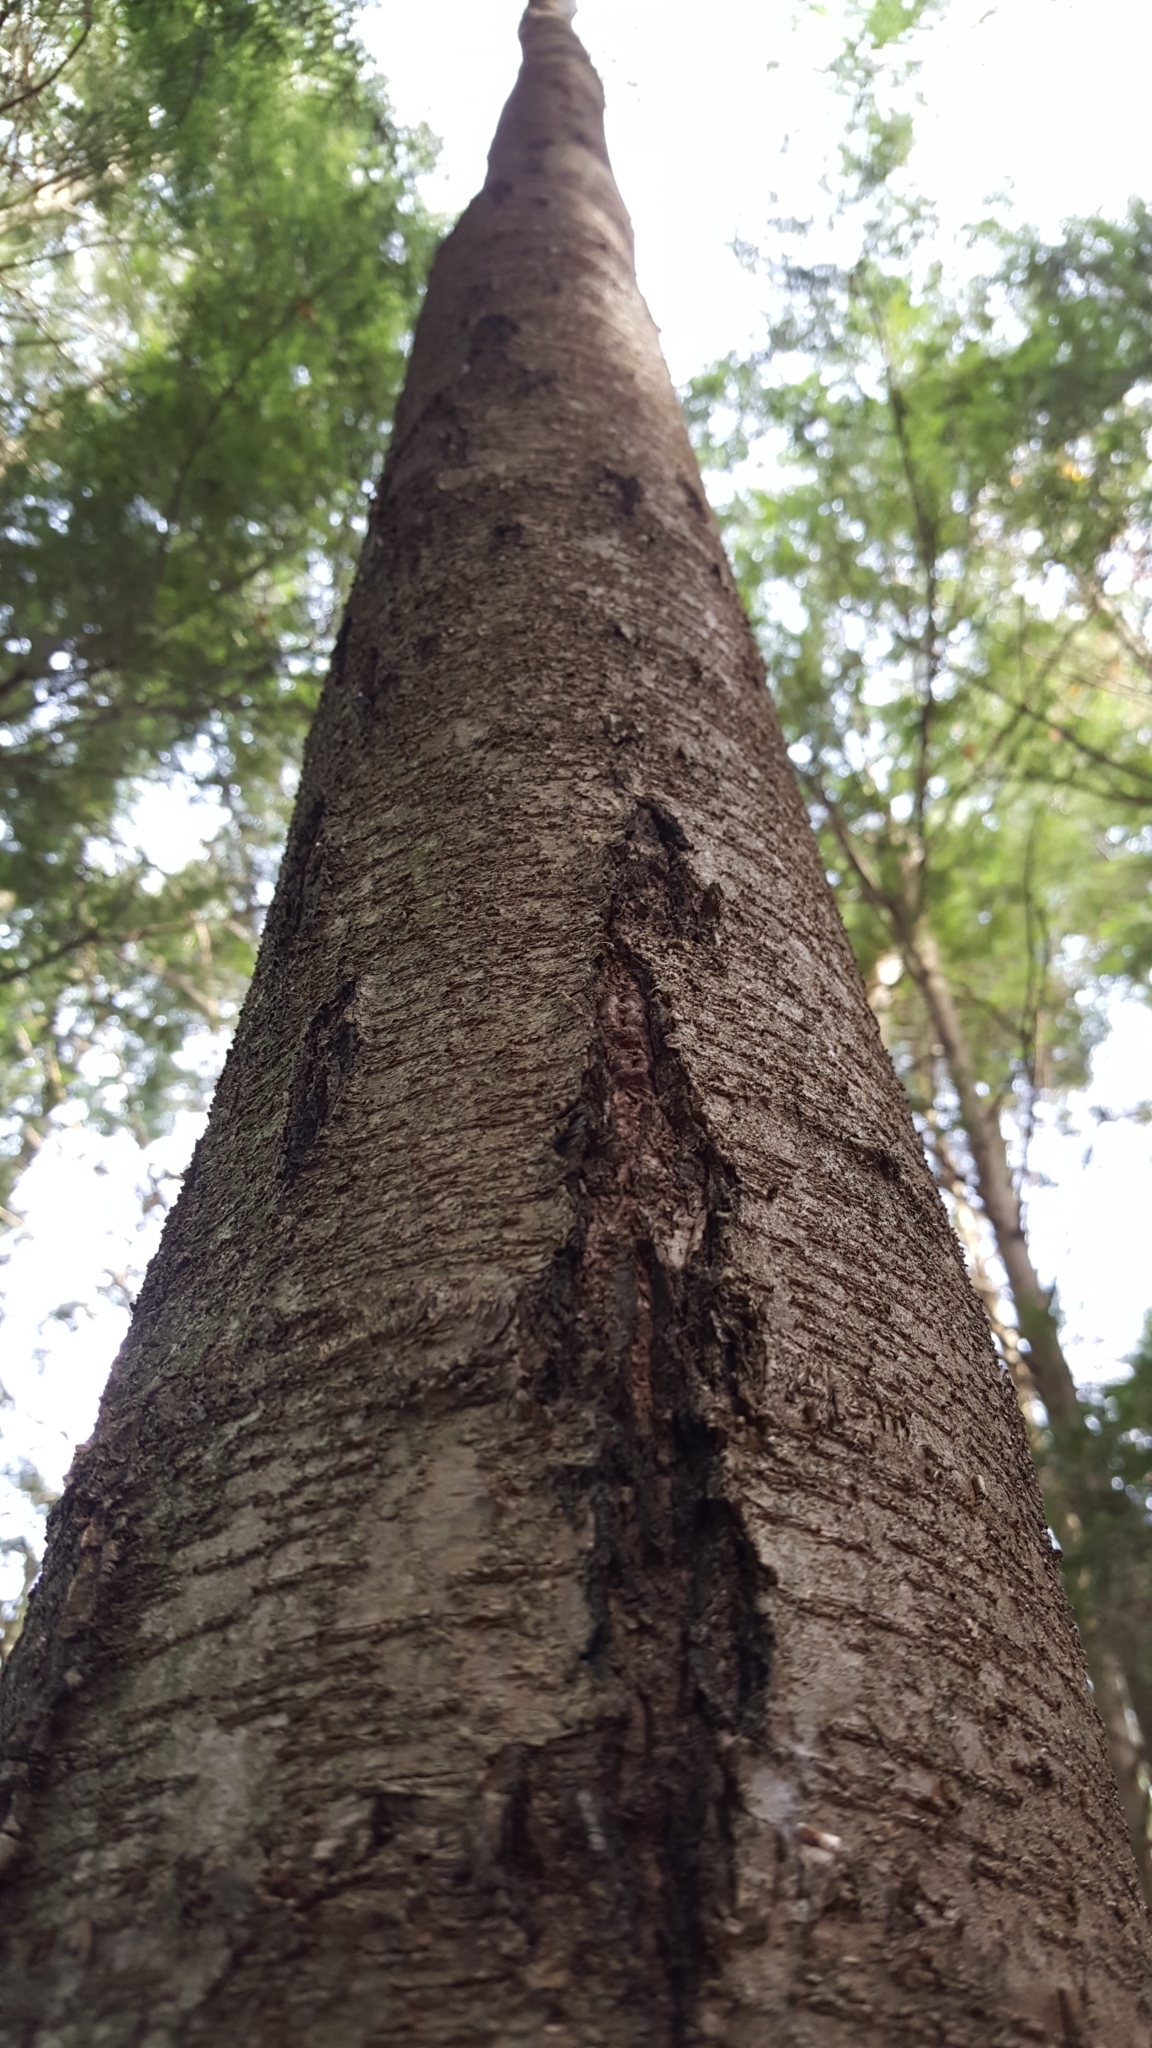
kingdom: Plantae
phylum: Tracheophyta
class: Magnoliopsida
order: Fagales
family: Betulaceae
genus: Betula
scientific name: Betula lenta
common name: Black birch
